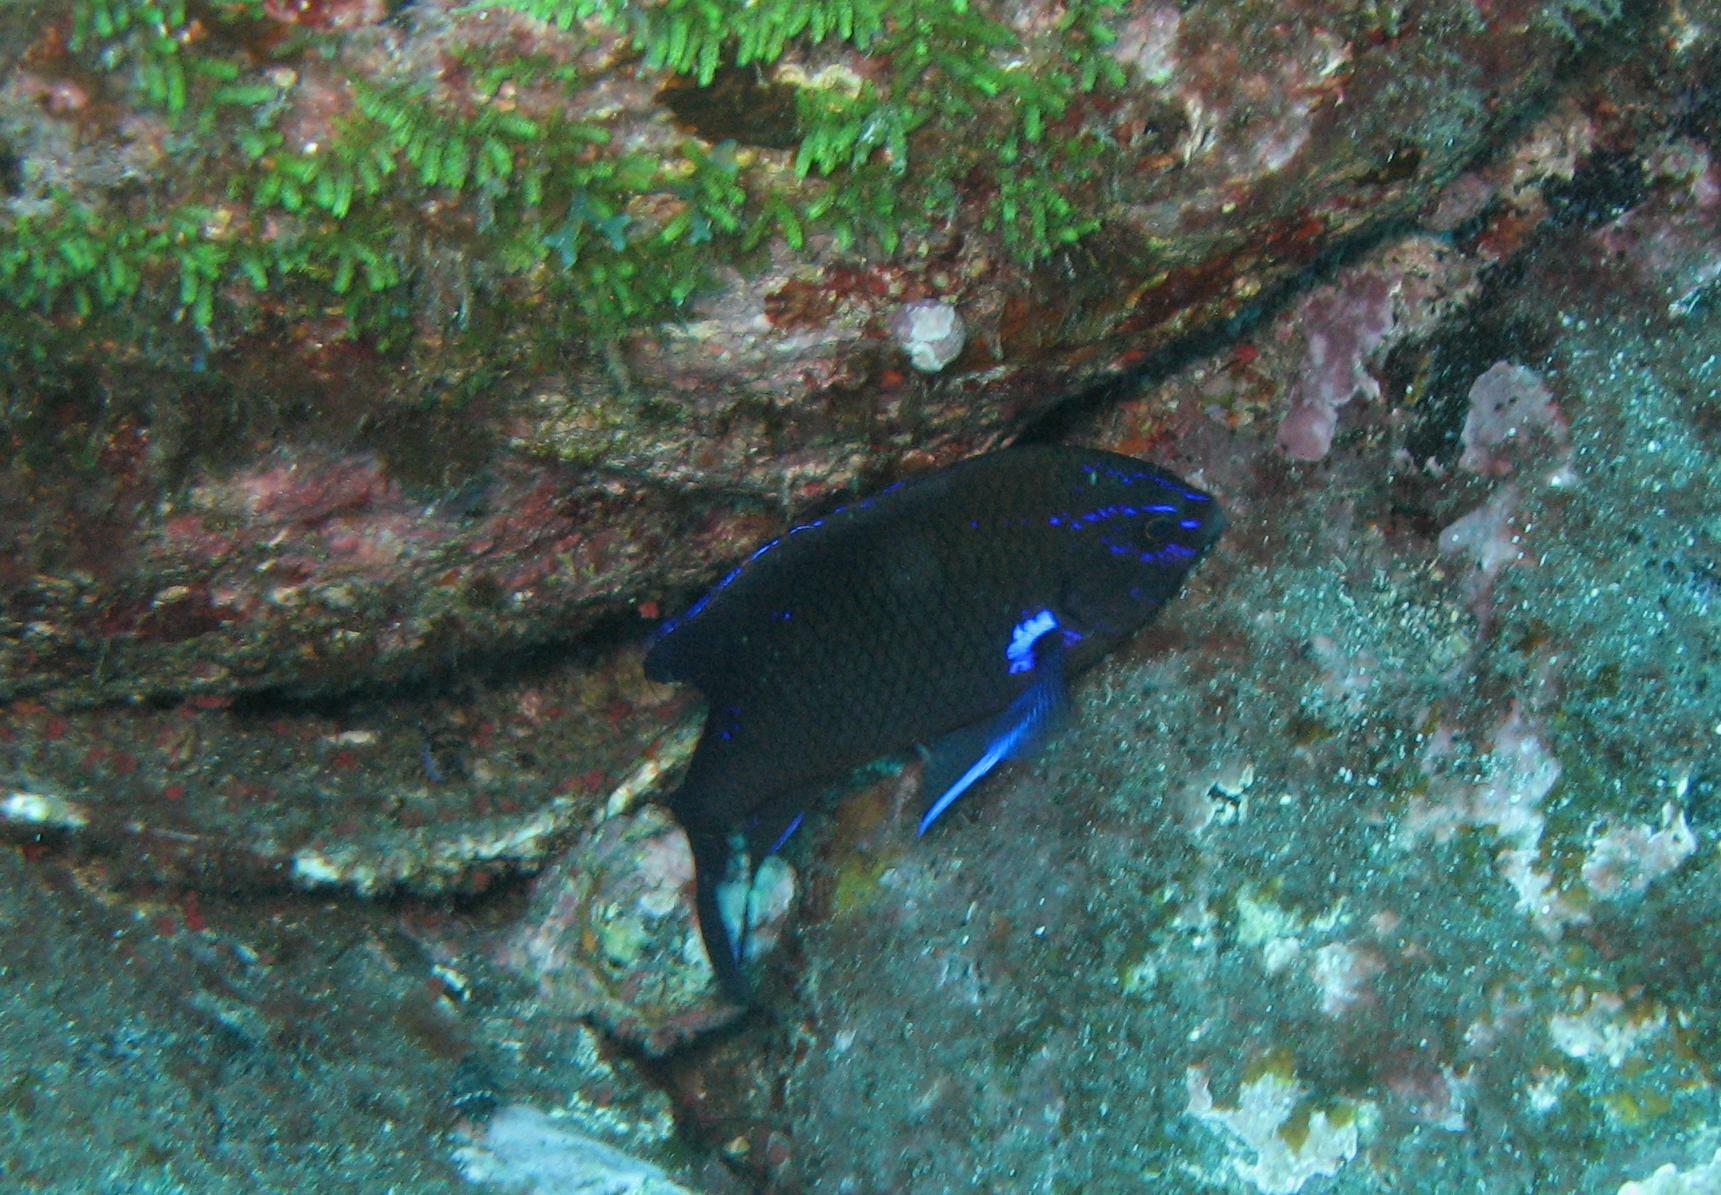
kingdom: Animalia
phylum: Chordata
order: Perciformes
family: Pomacentridae
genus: Similiparma
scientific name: Similiparma lurida
